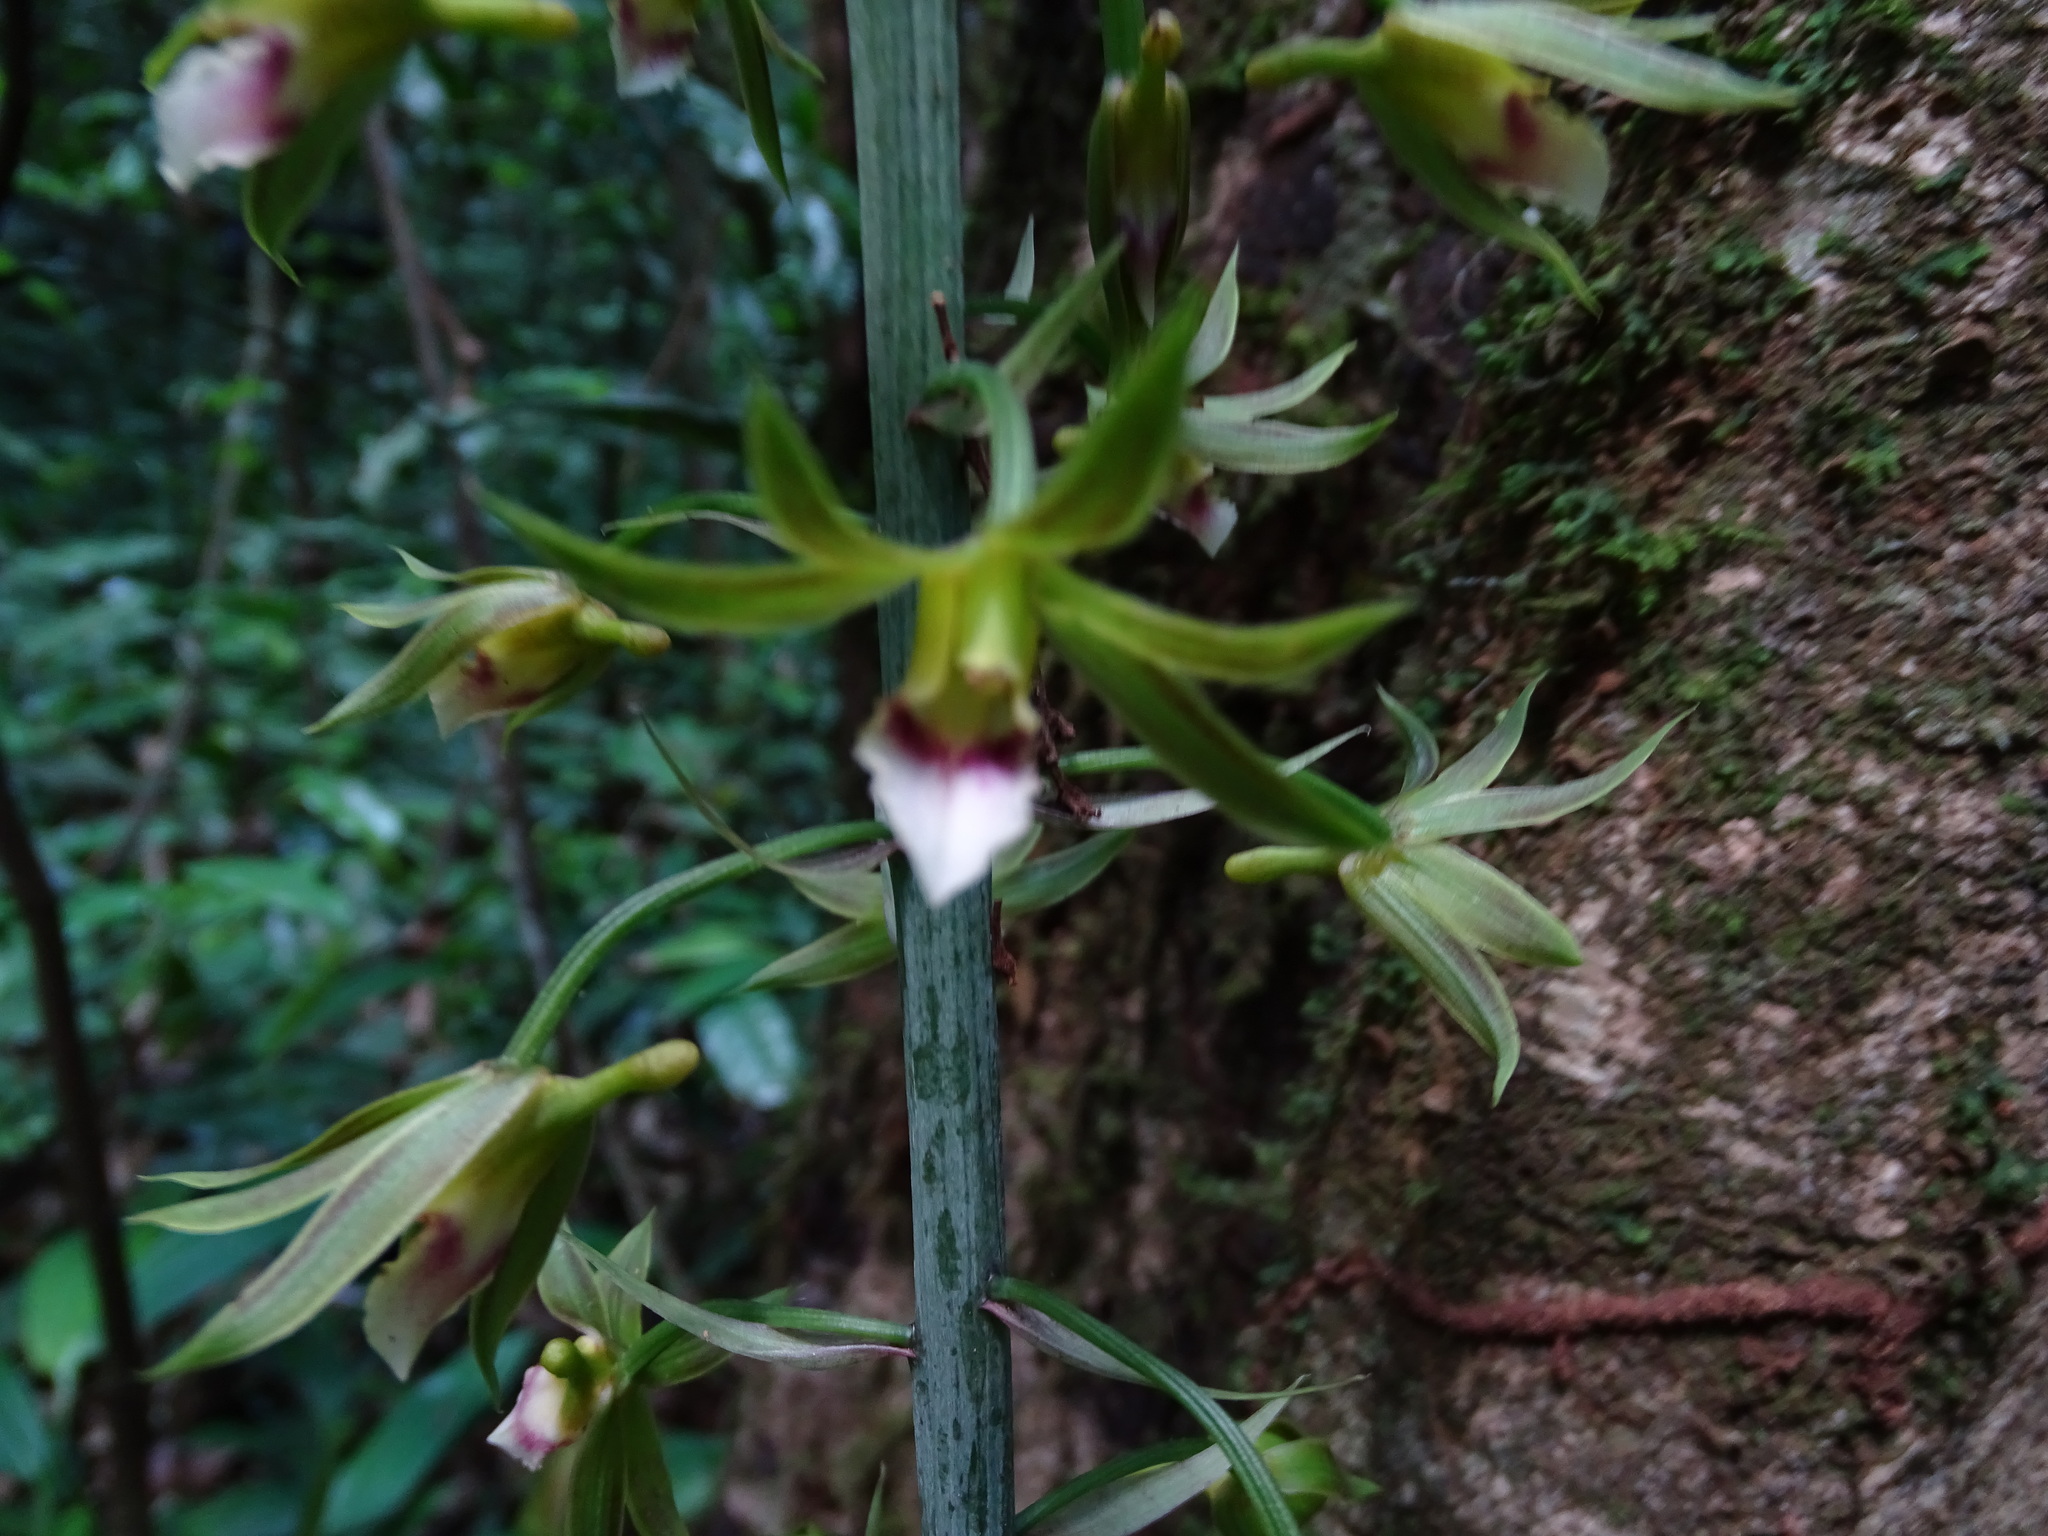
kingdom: Plantae
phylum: Tracheophyta
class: Liliopsida
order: Asparagales
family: Orchidaceae
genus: Eulophia
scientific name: Eulophia euglossa
